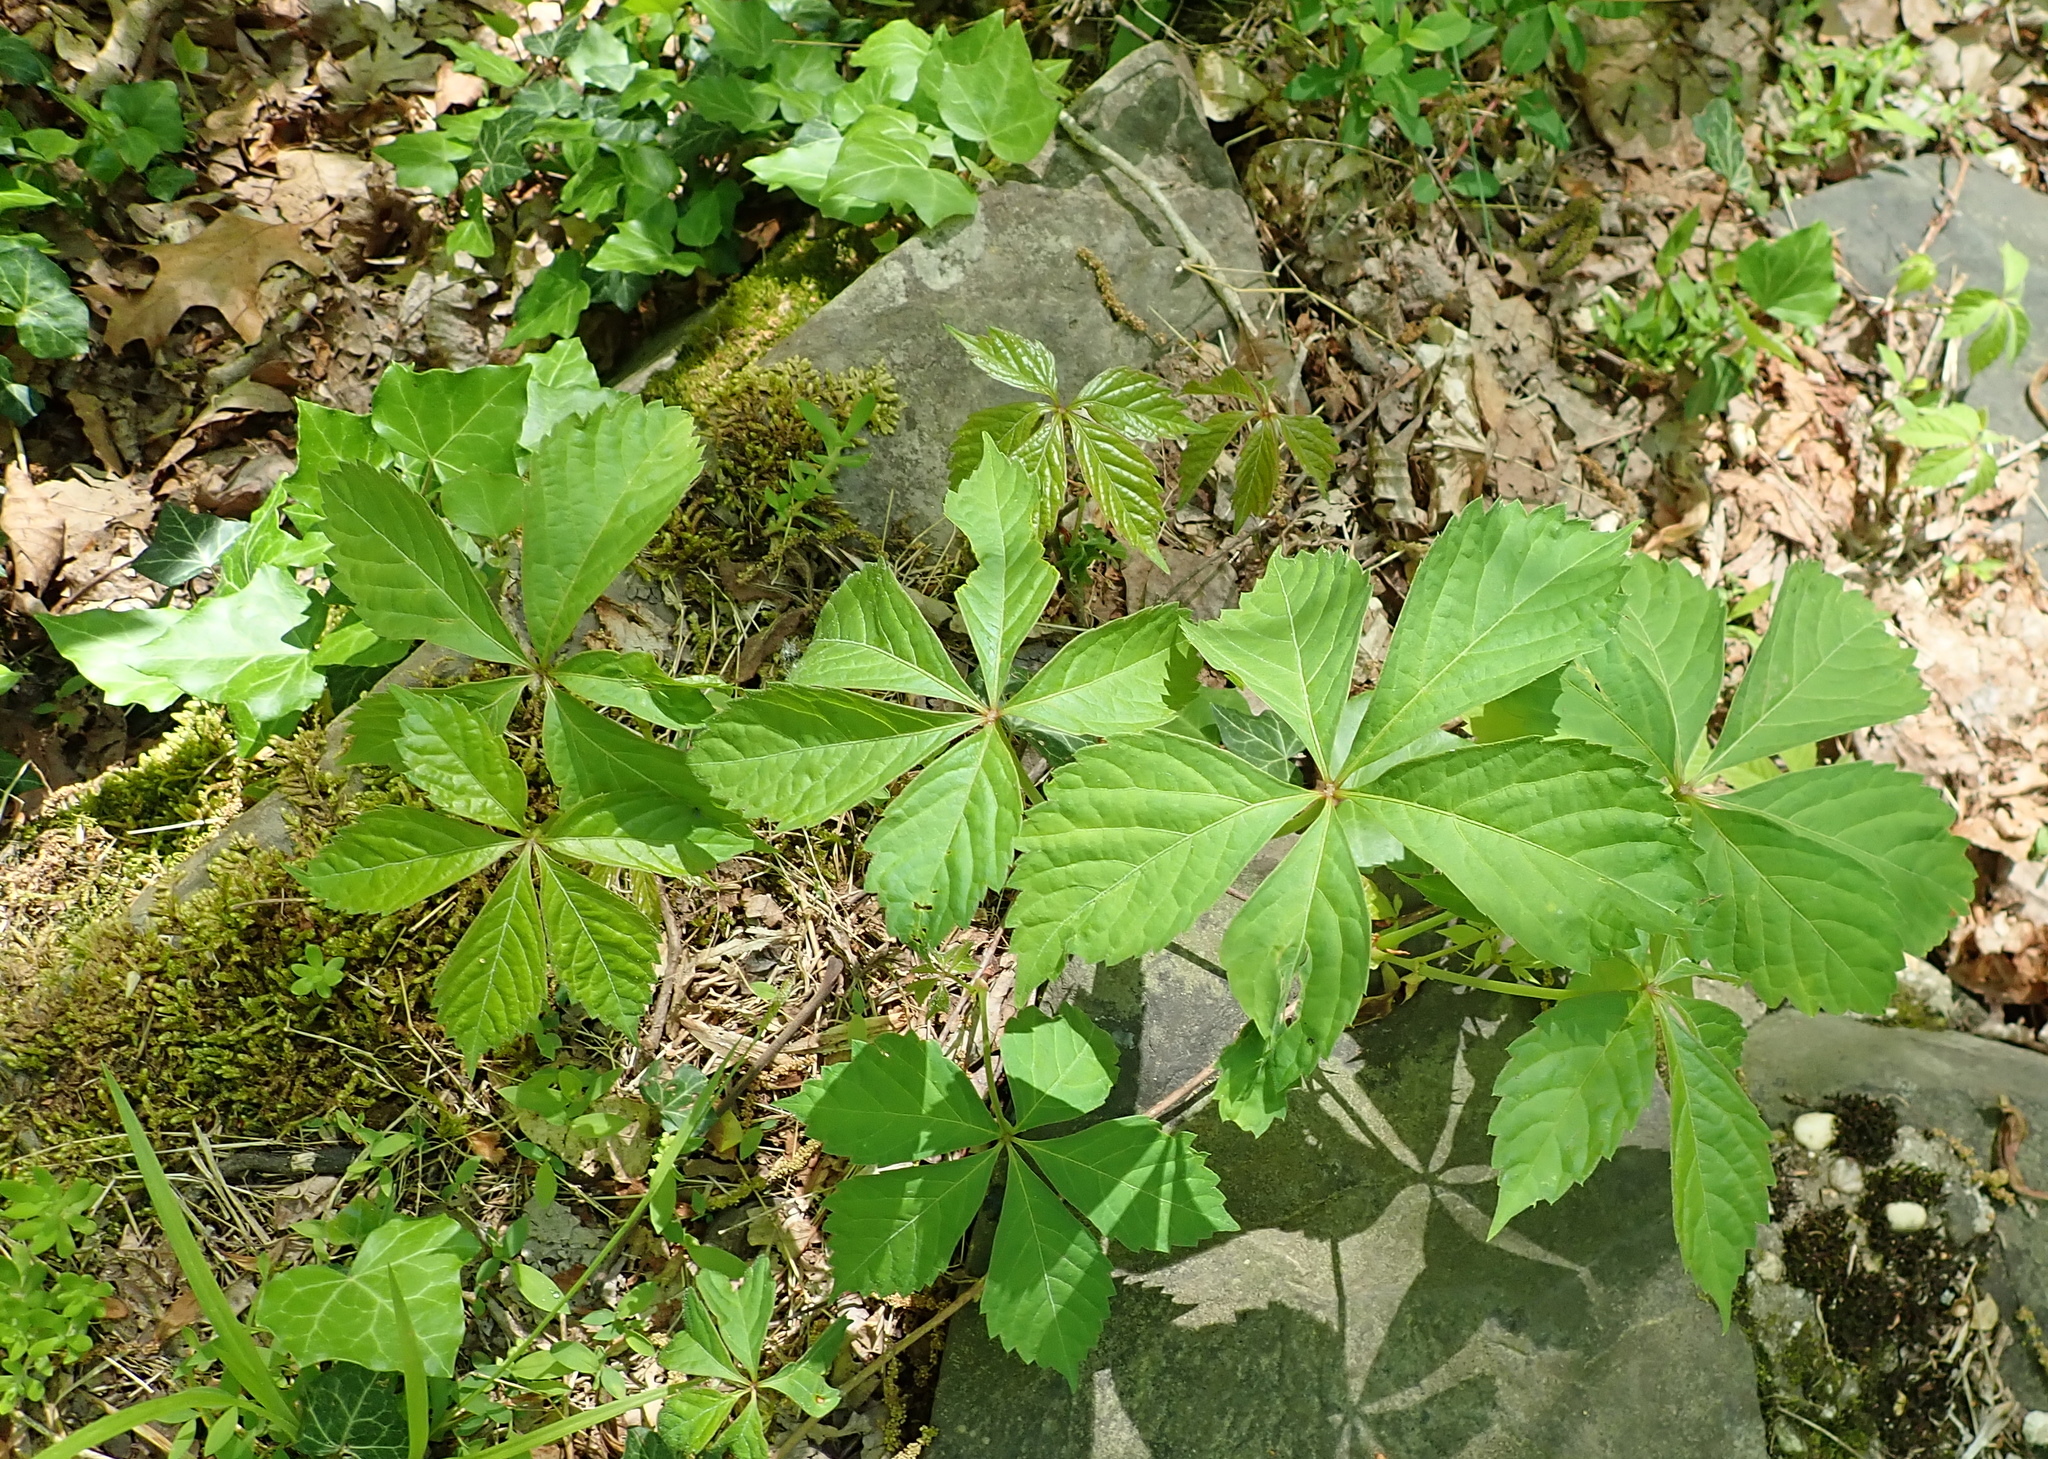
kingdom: Plantae
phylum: Tracheophyta
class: Magnoliopsida
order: Vitales
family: Vitaceae
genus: Parthenocissus
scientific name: Parthenocissus quinquefolia
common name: Virginia-creeper
